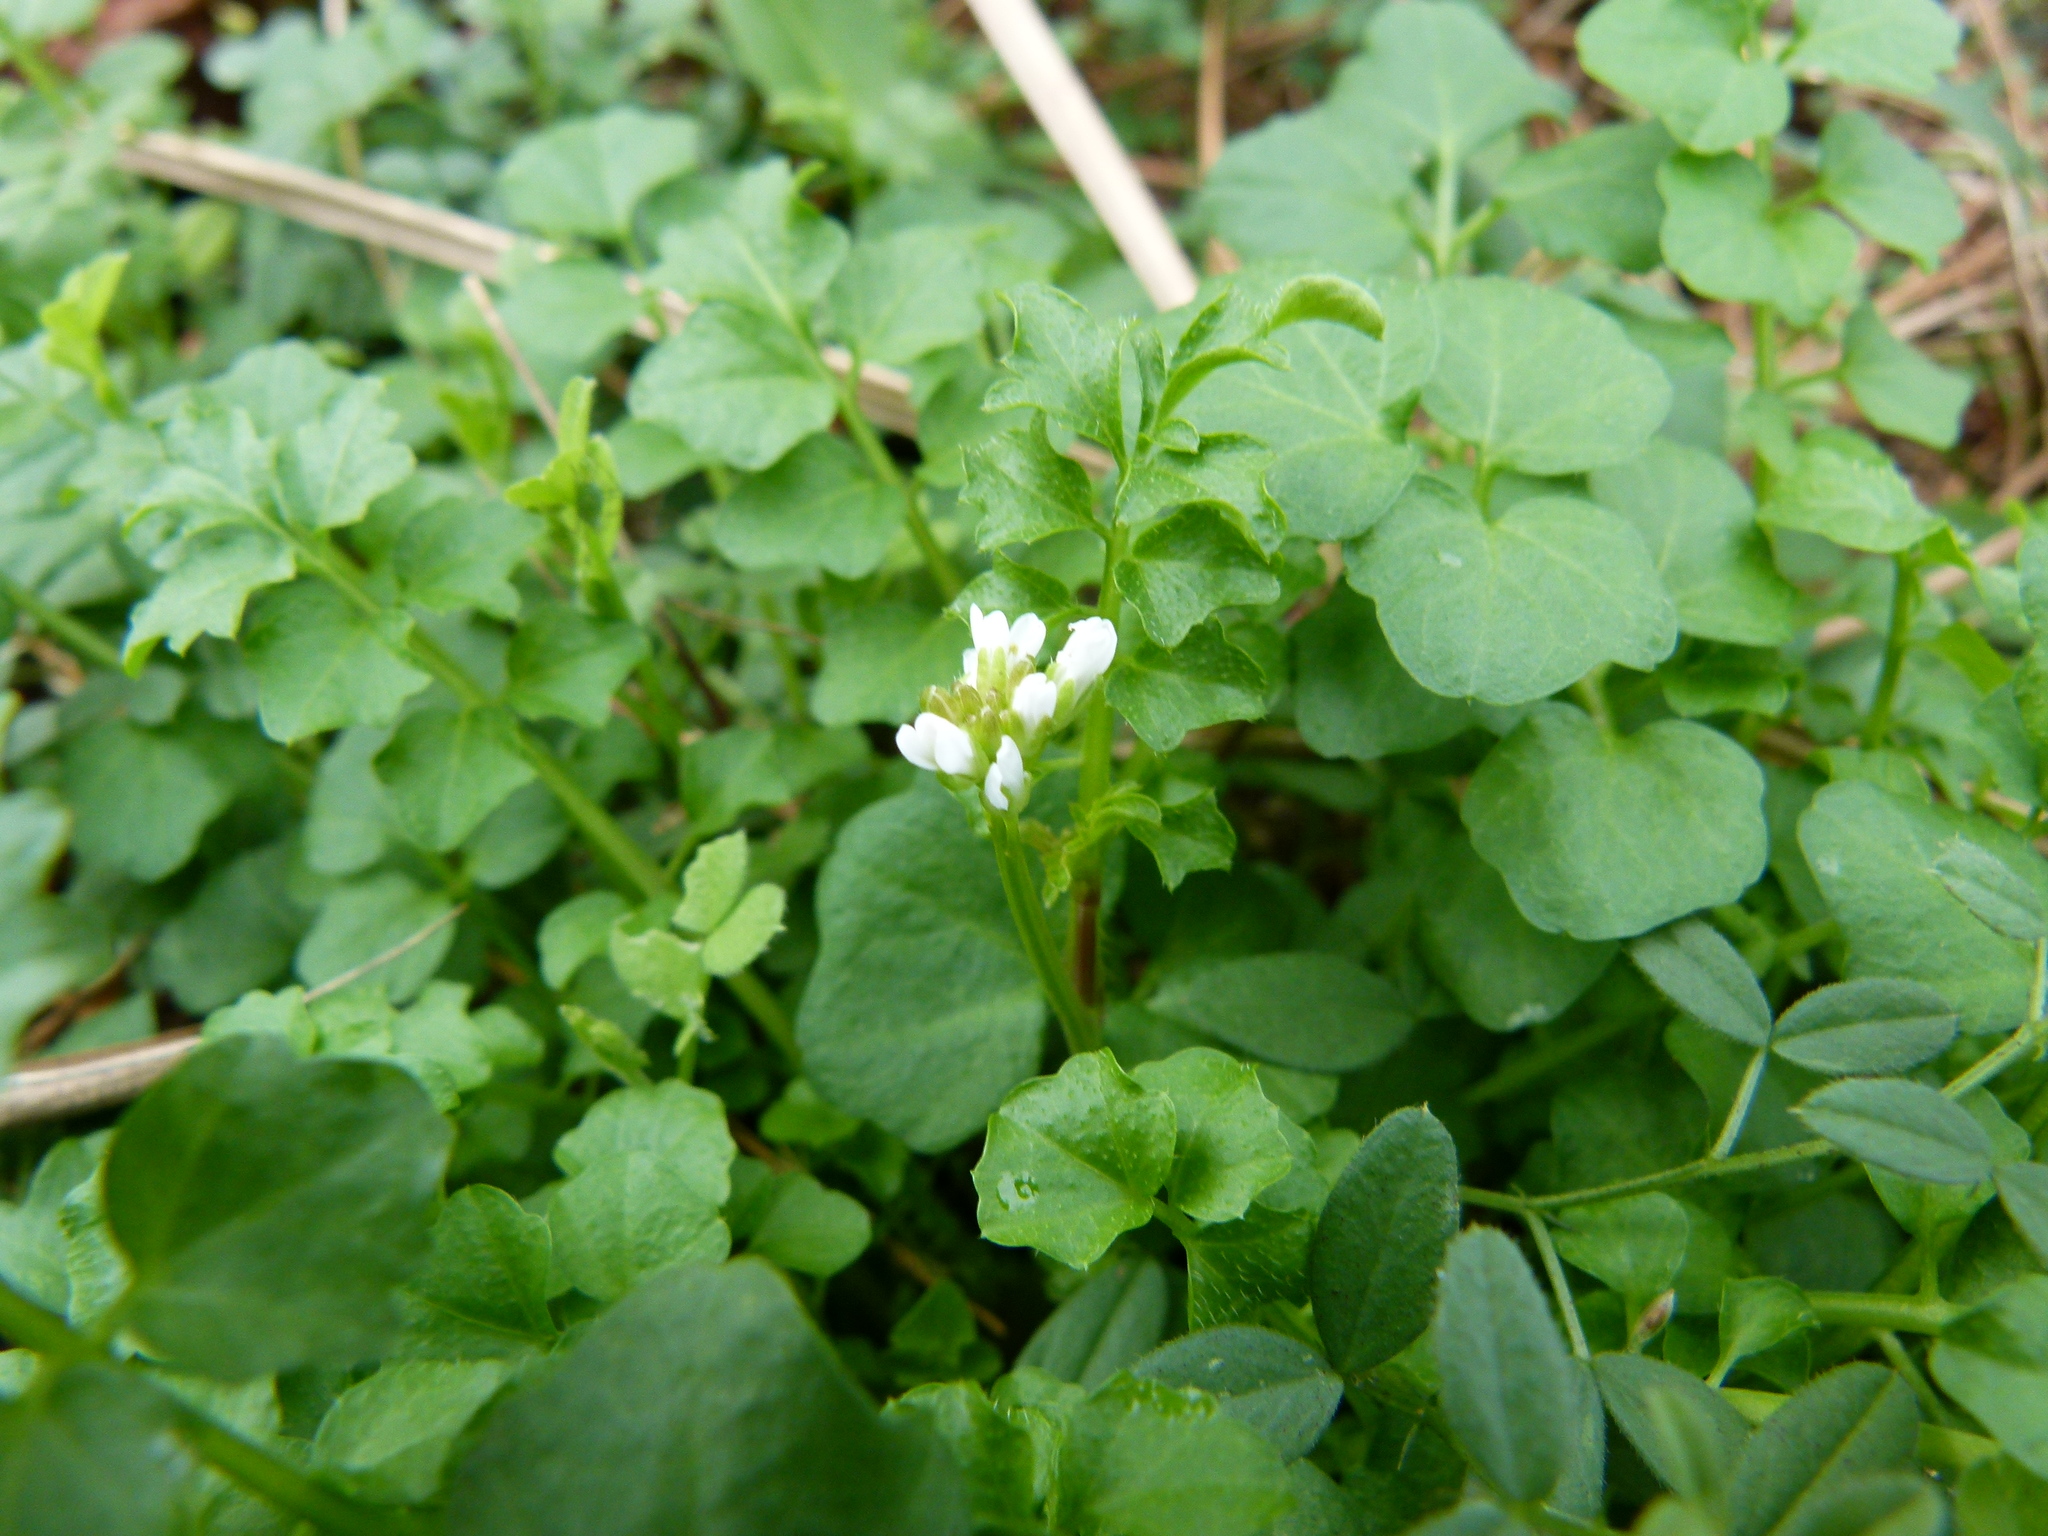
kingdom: Plantae
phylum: Tracheophyta
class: Magnoliopsida
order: Brassicales
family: Brassicaceae
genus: Cardamine
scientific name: Cardamine hirsuta
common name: Hairy bittercress
